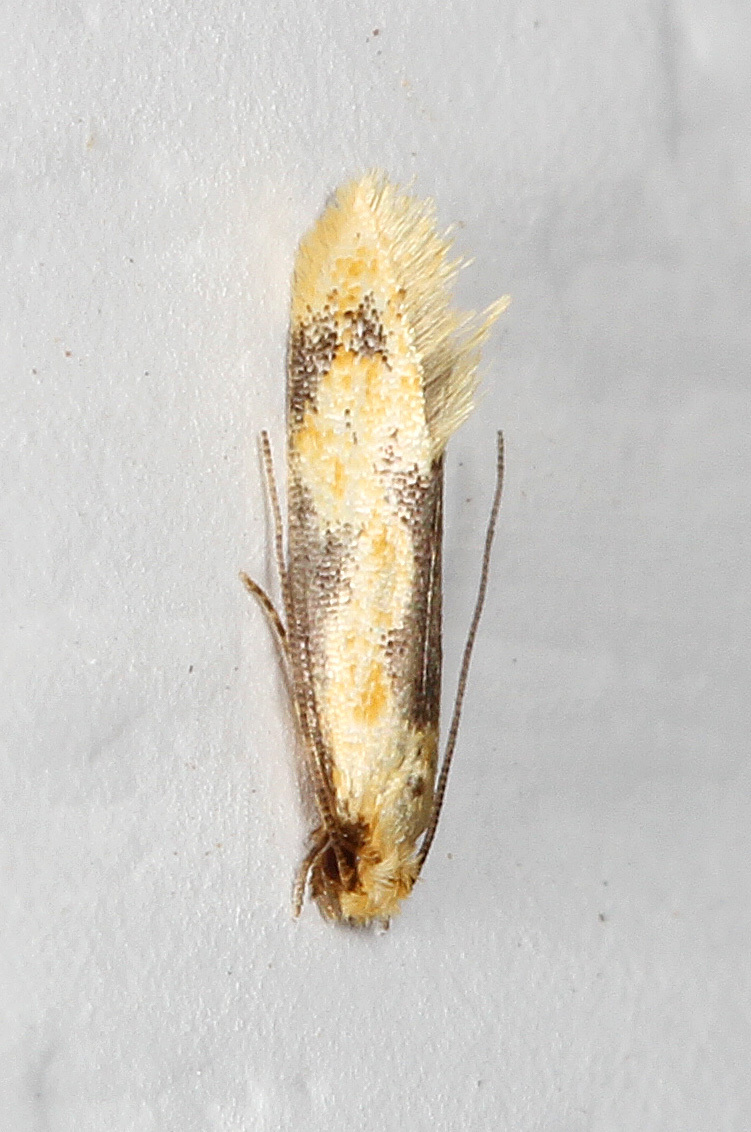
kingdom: Animalia
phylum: Arthropoda
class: Insecta
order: Lepidoptera
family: Meessiidae
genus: Hybroma
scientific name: Hybroma servulella
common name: Yellow wave moth
